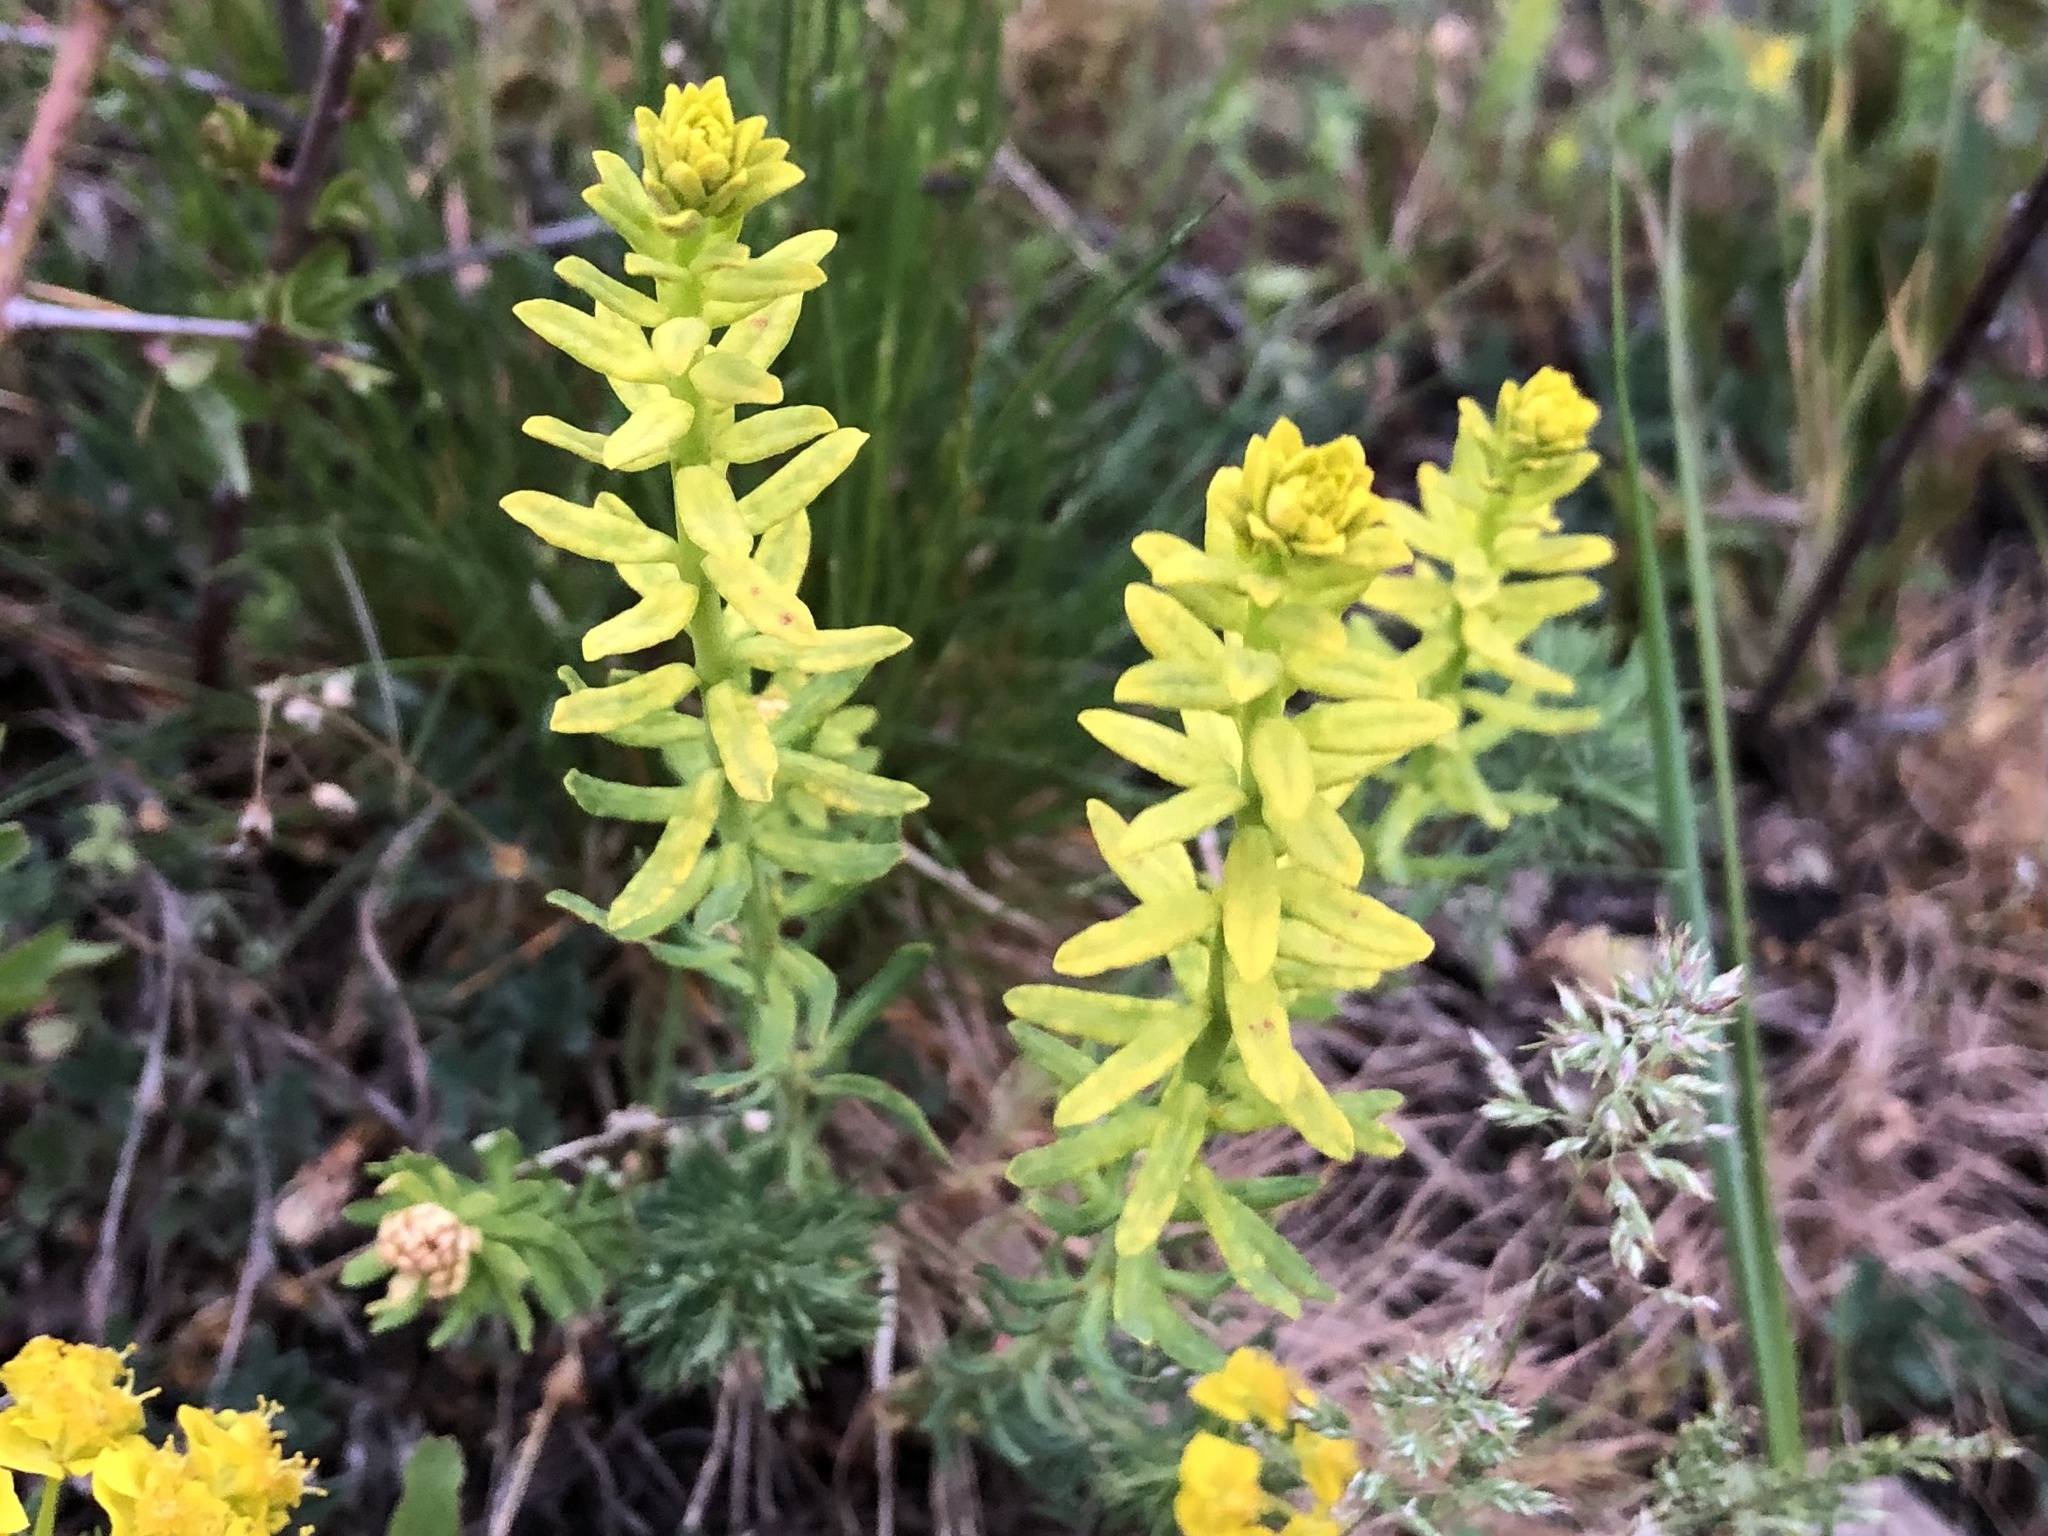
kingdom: Plantae
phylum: Tracheophyta
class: Magnoliopsida
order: Malpighiales
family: Euphorbiaceae
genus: Euphorbia
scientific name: Euphorbia cyparissias
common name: Cypress spurge
